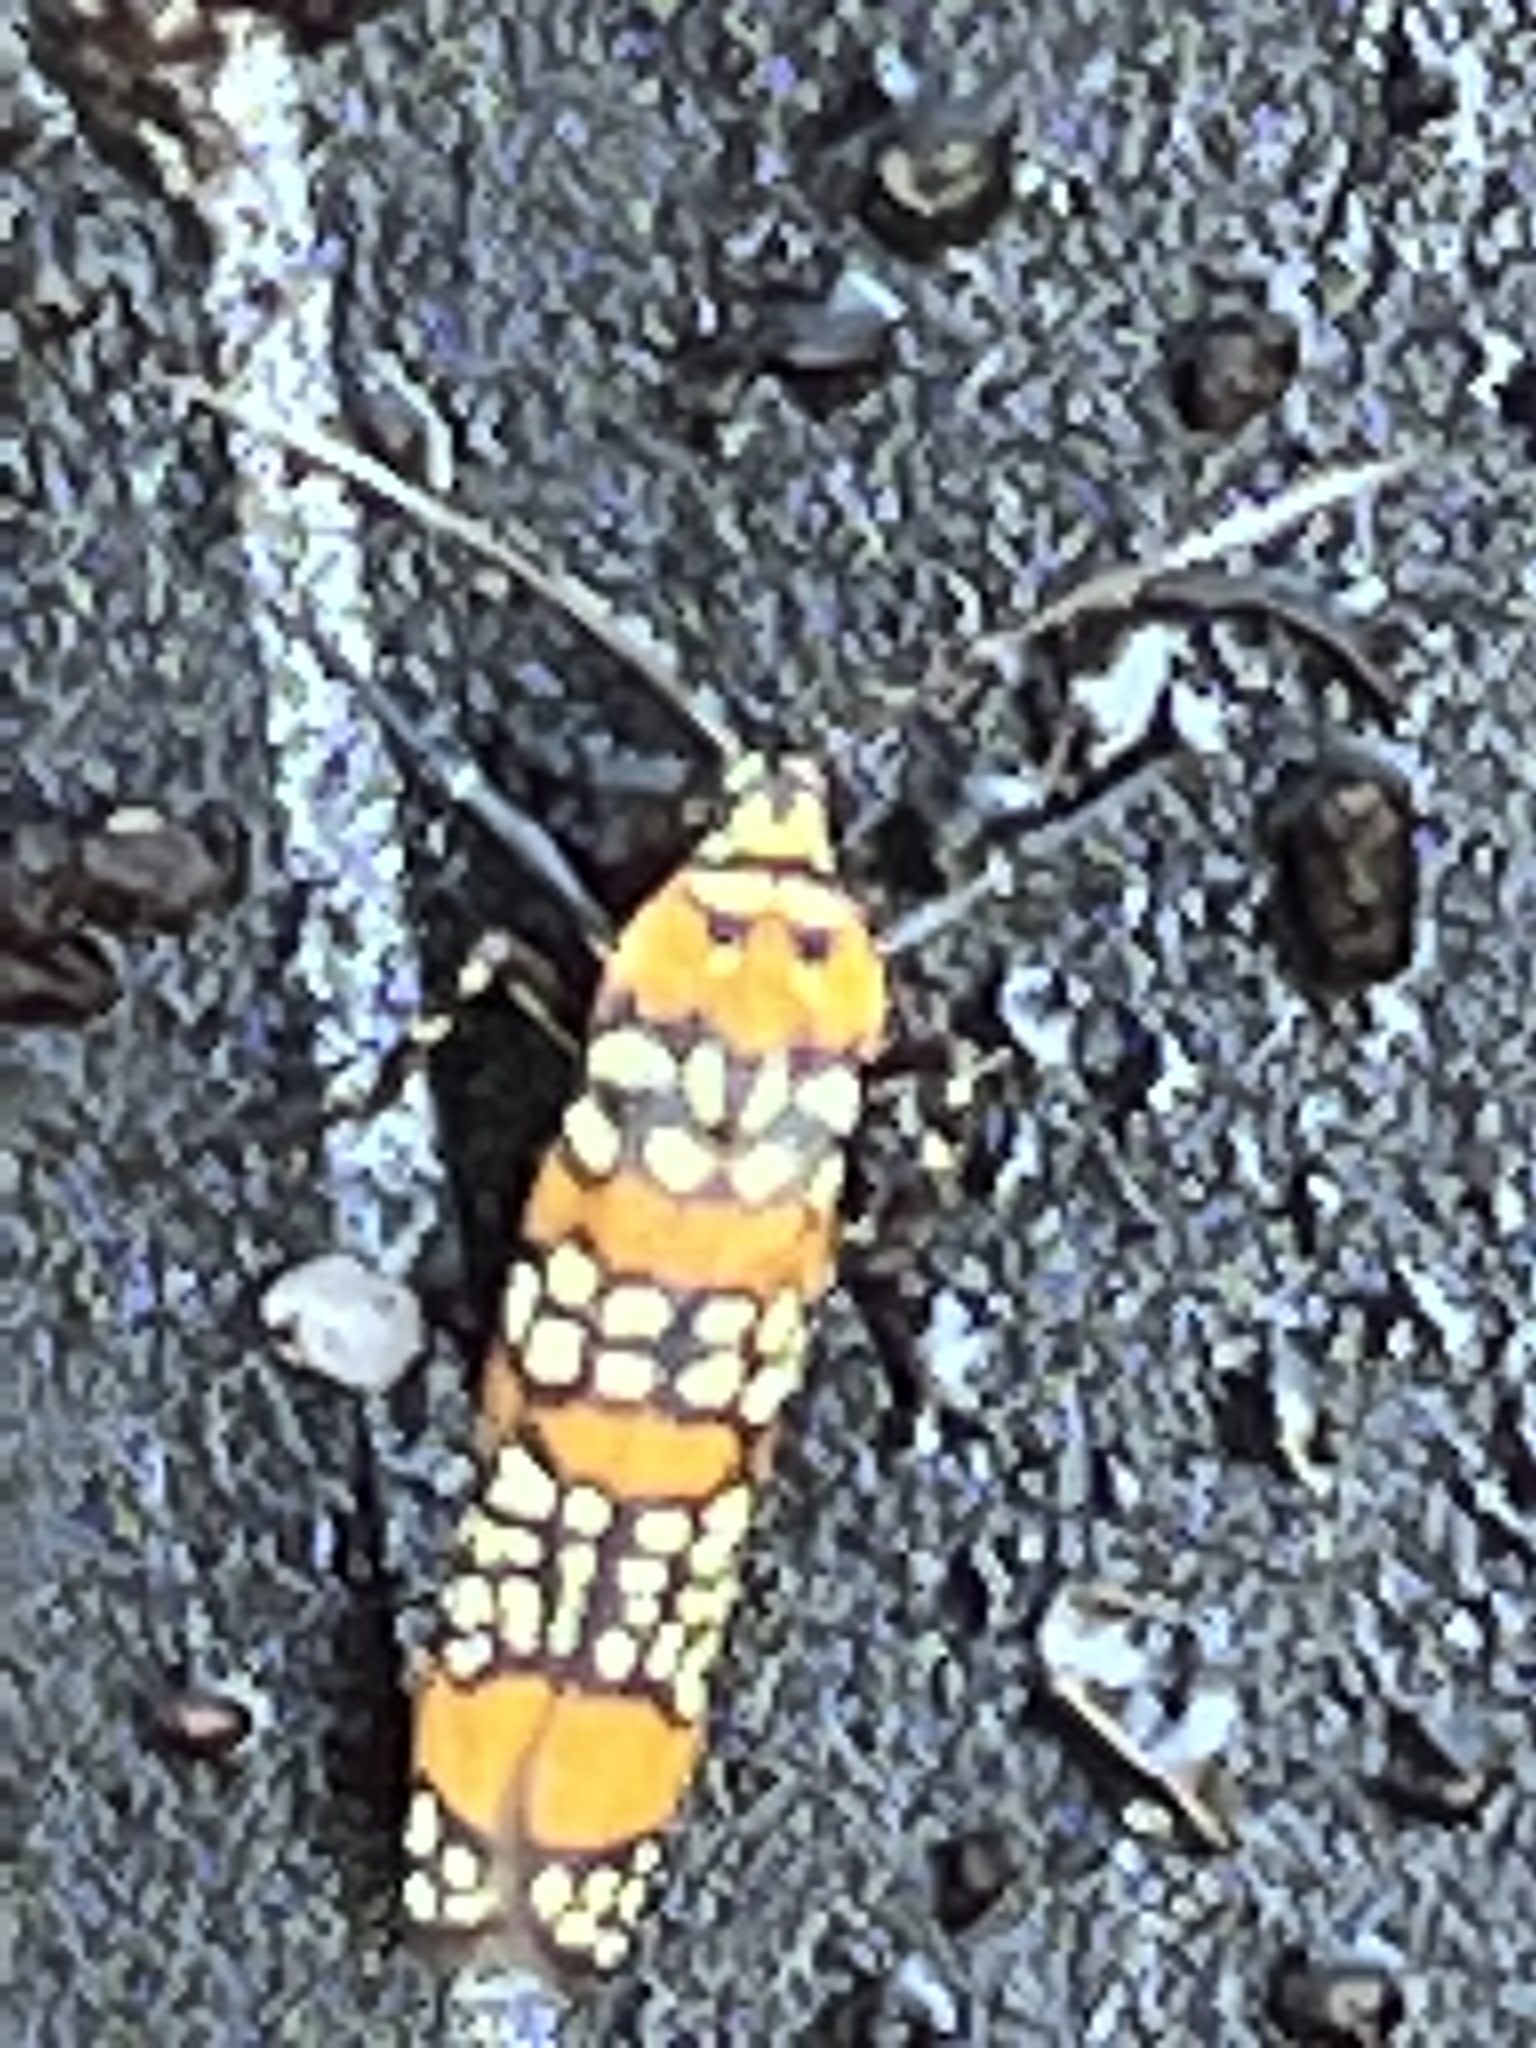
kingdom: Animalia
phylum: Arthropoda
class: Insecta
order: Lepidoptera
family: Attevidae
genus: Atteva
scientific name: Atteva punctella
